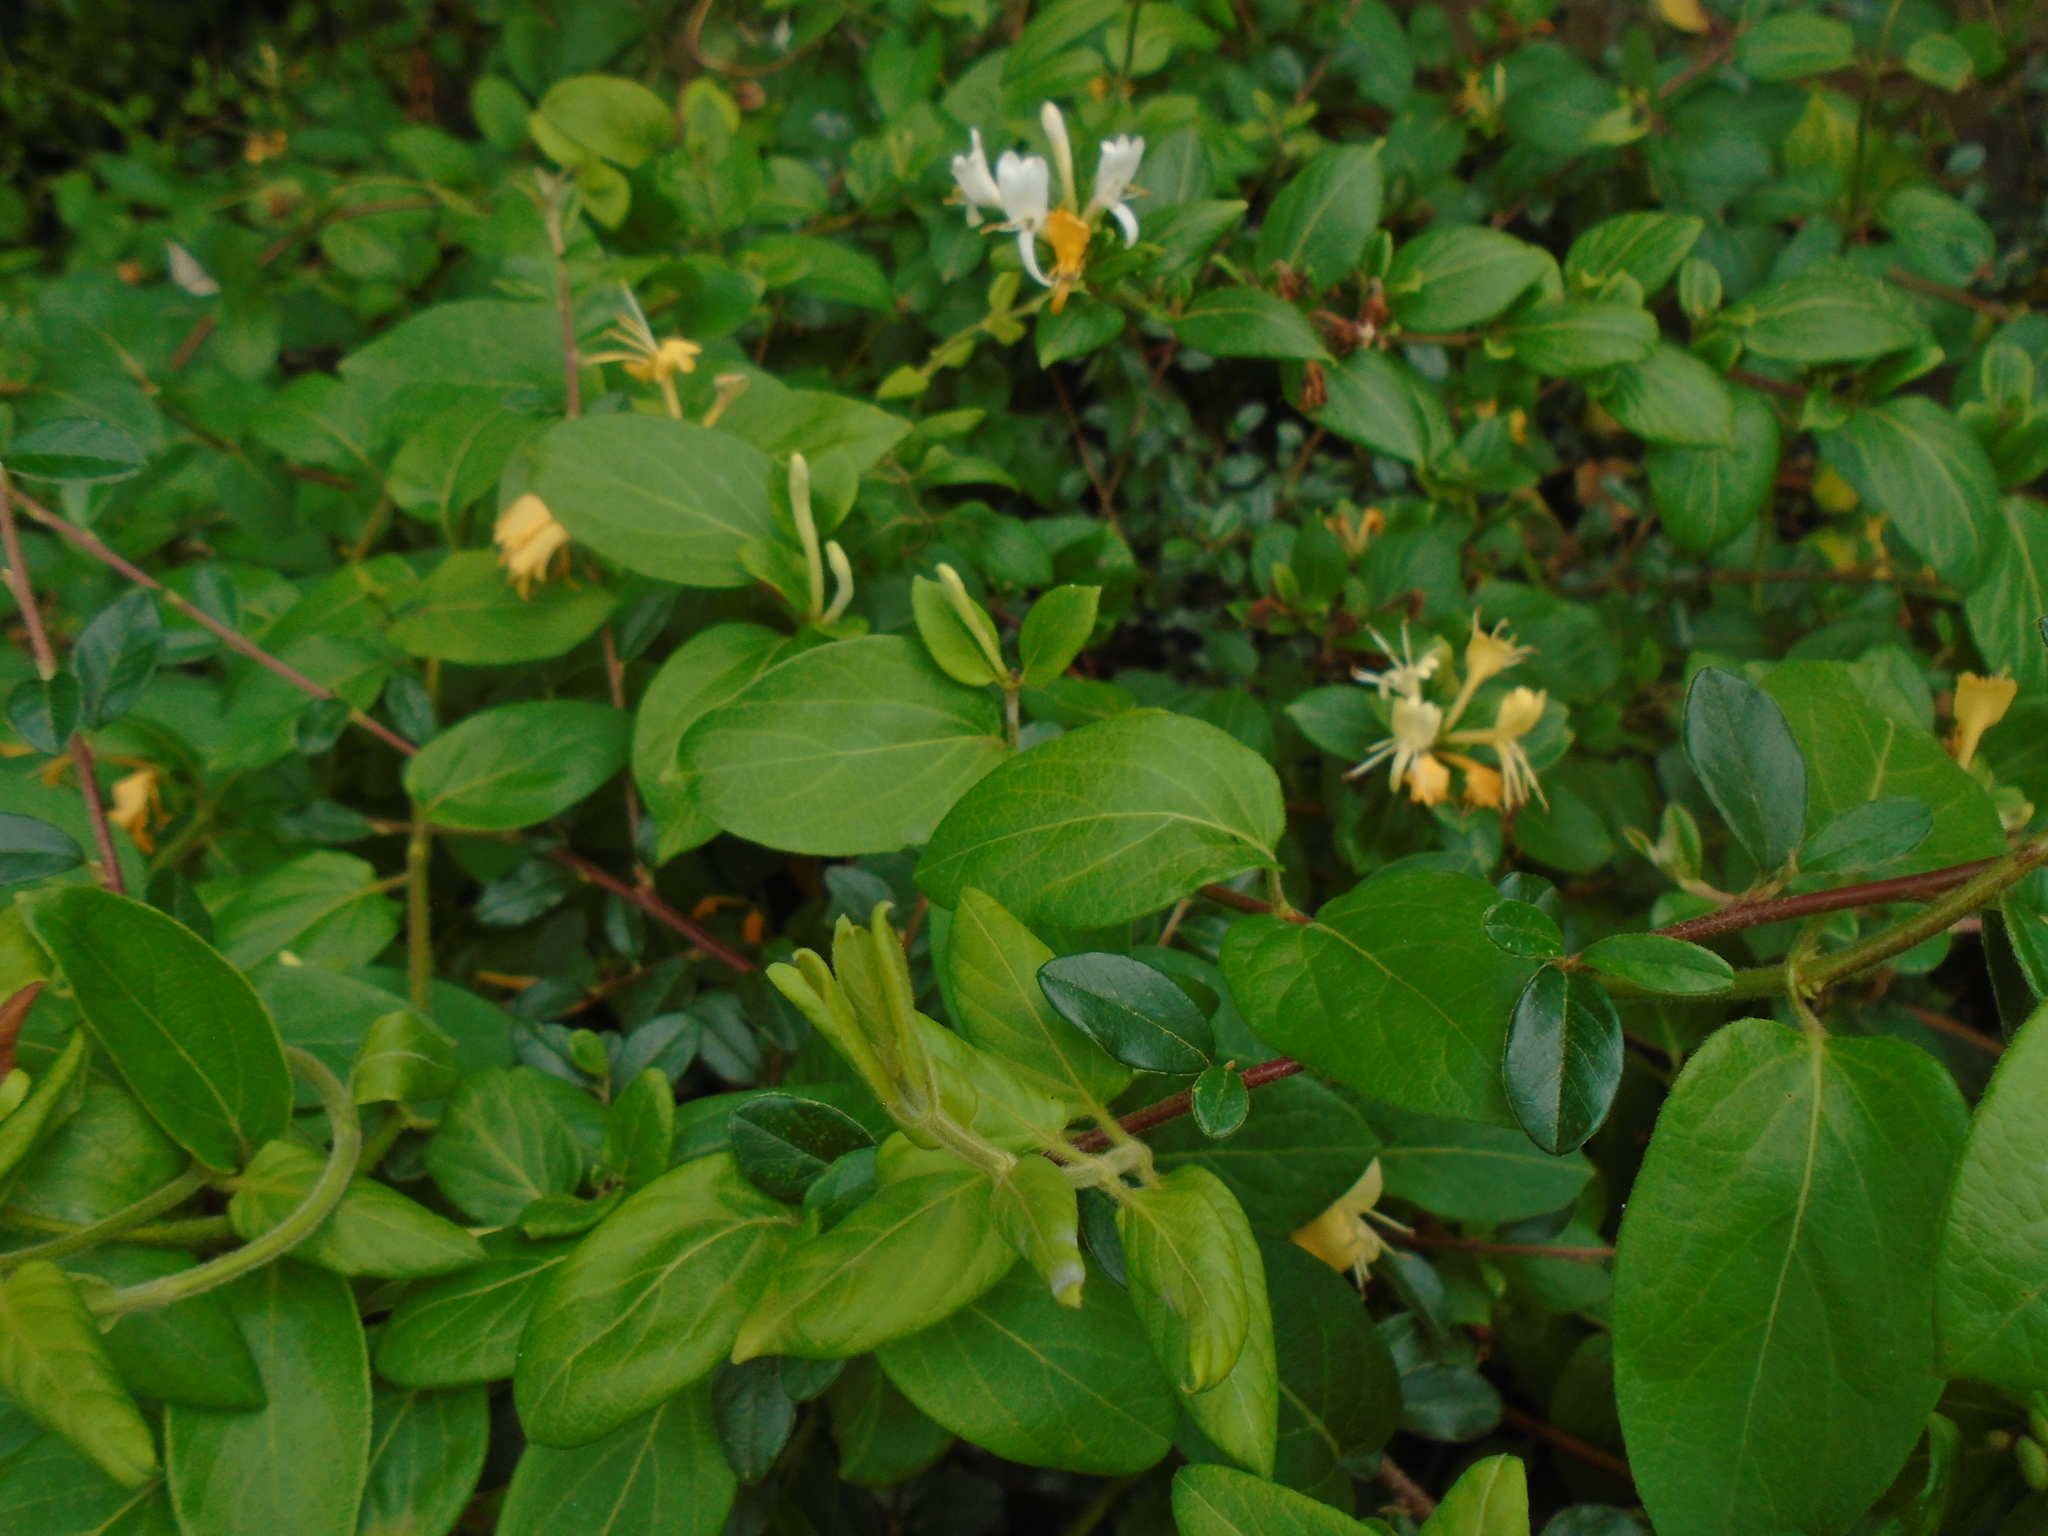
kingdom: Plantae
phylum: Tracheophyta
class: Magnoliopsida
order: Dipsacales
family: Caprifoliaceae
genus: Lonicera
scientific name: Lonicera japonica
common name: Japanese honeysuckle
